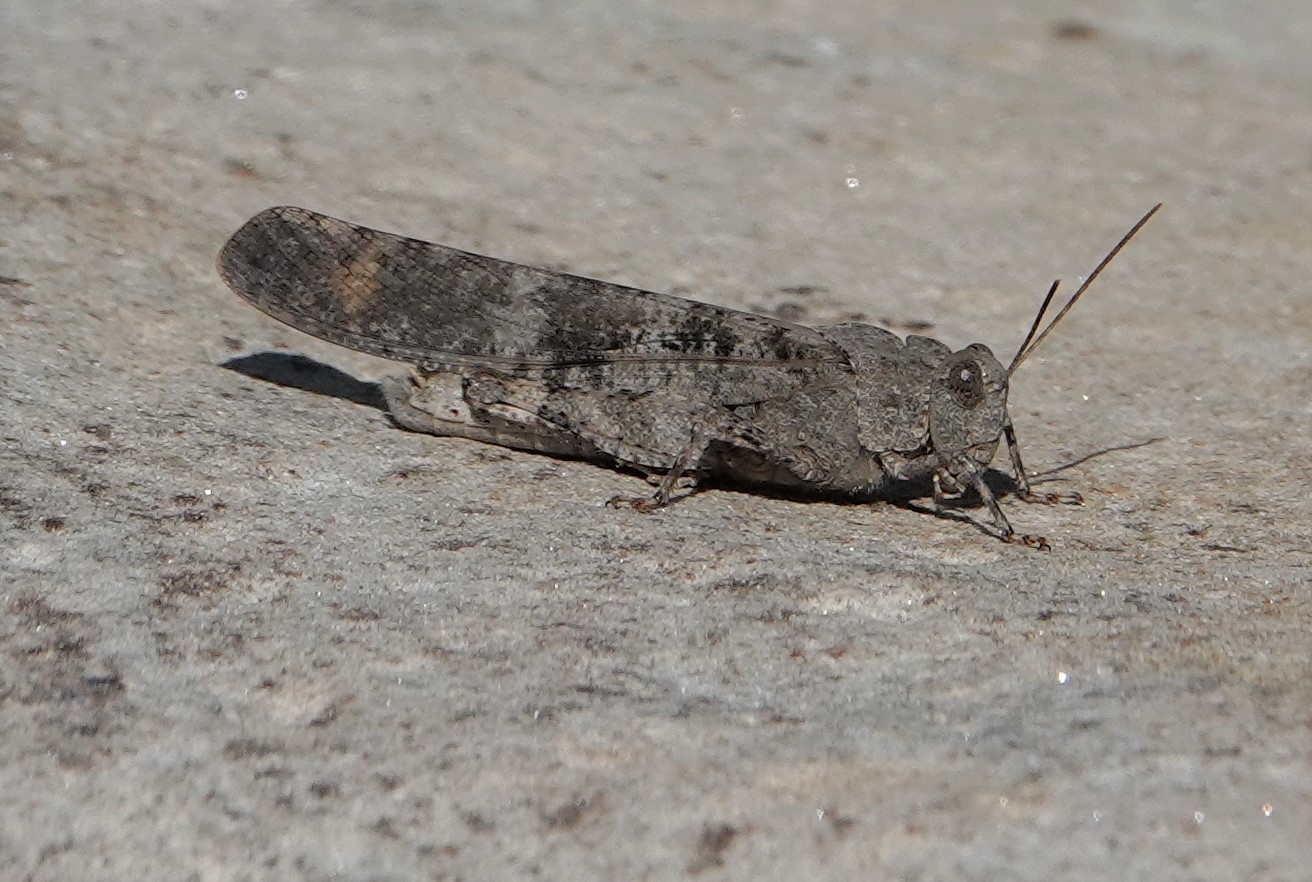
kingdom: Animalia
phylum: Arthropoda
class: Insecta
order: Orthoptera
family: Acrididae
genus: Dissosteira
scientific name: Dissosteira carolina
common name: Carolina grasshopper
